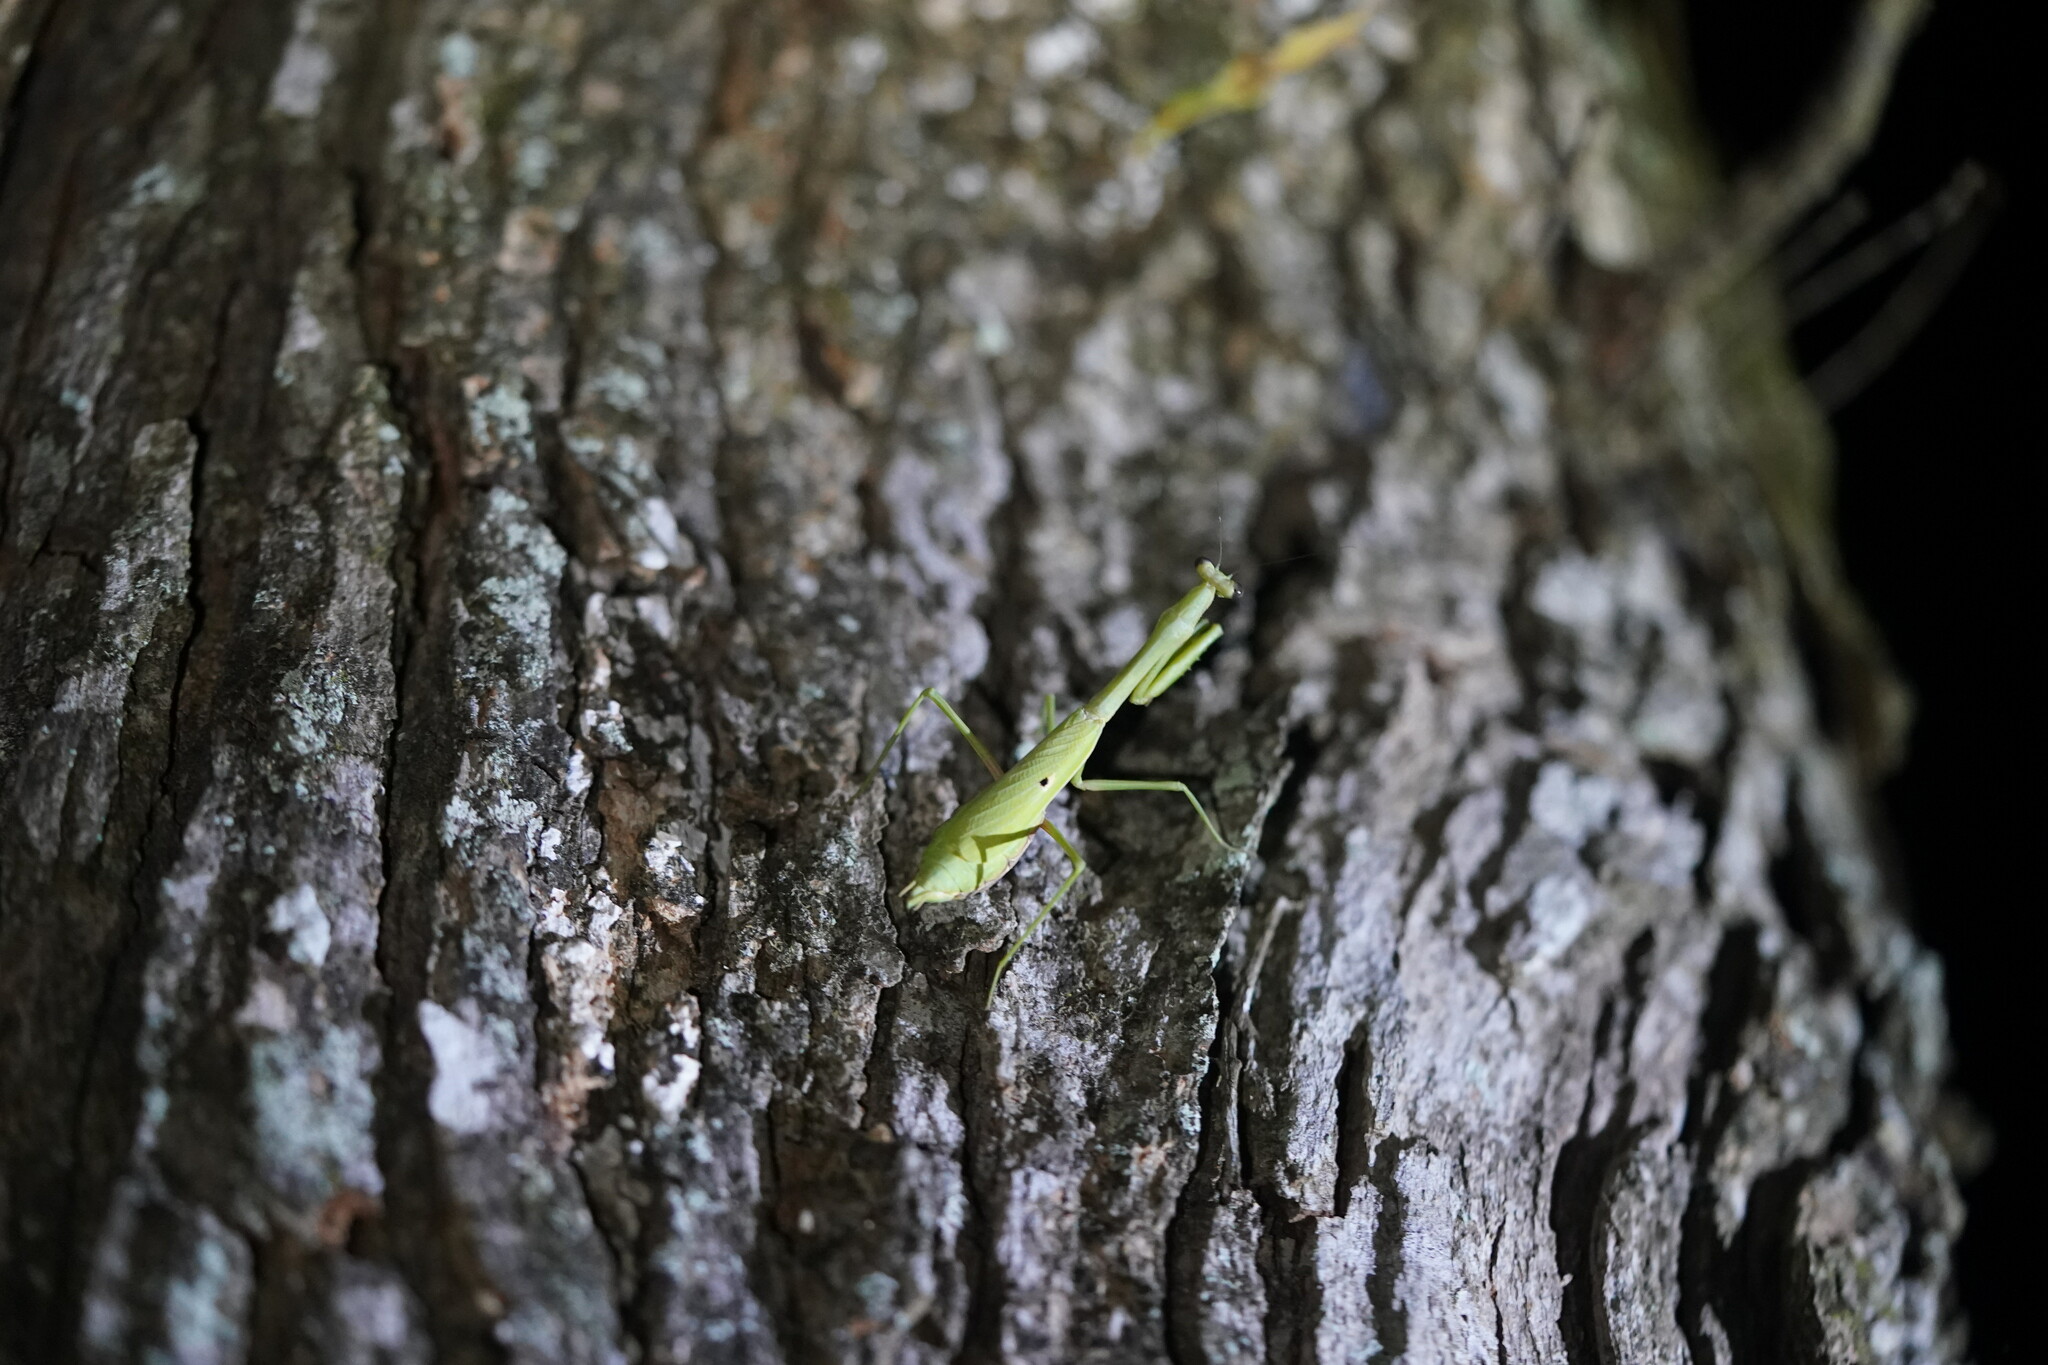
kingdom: Animalia
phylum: Arthropoda
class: Insecta
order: Mantodea
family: Mantidae
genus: Stagmomantis
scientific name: Stagmomantis carolina
